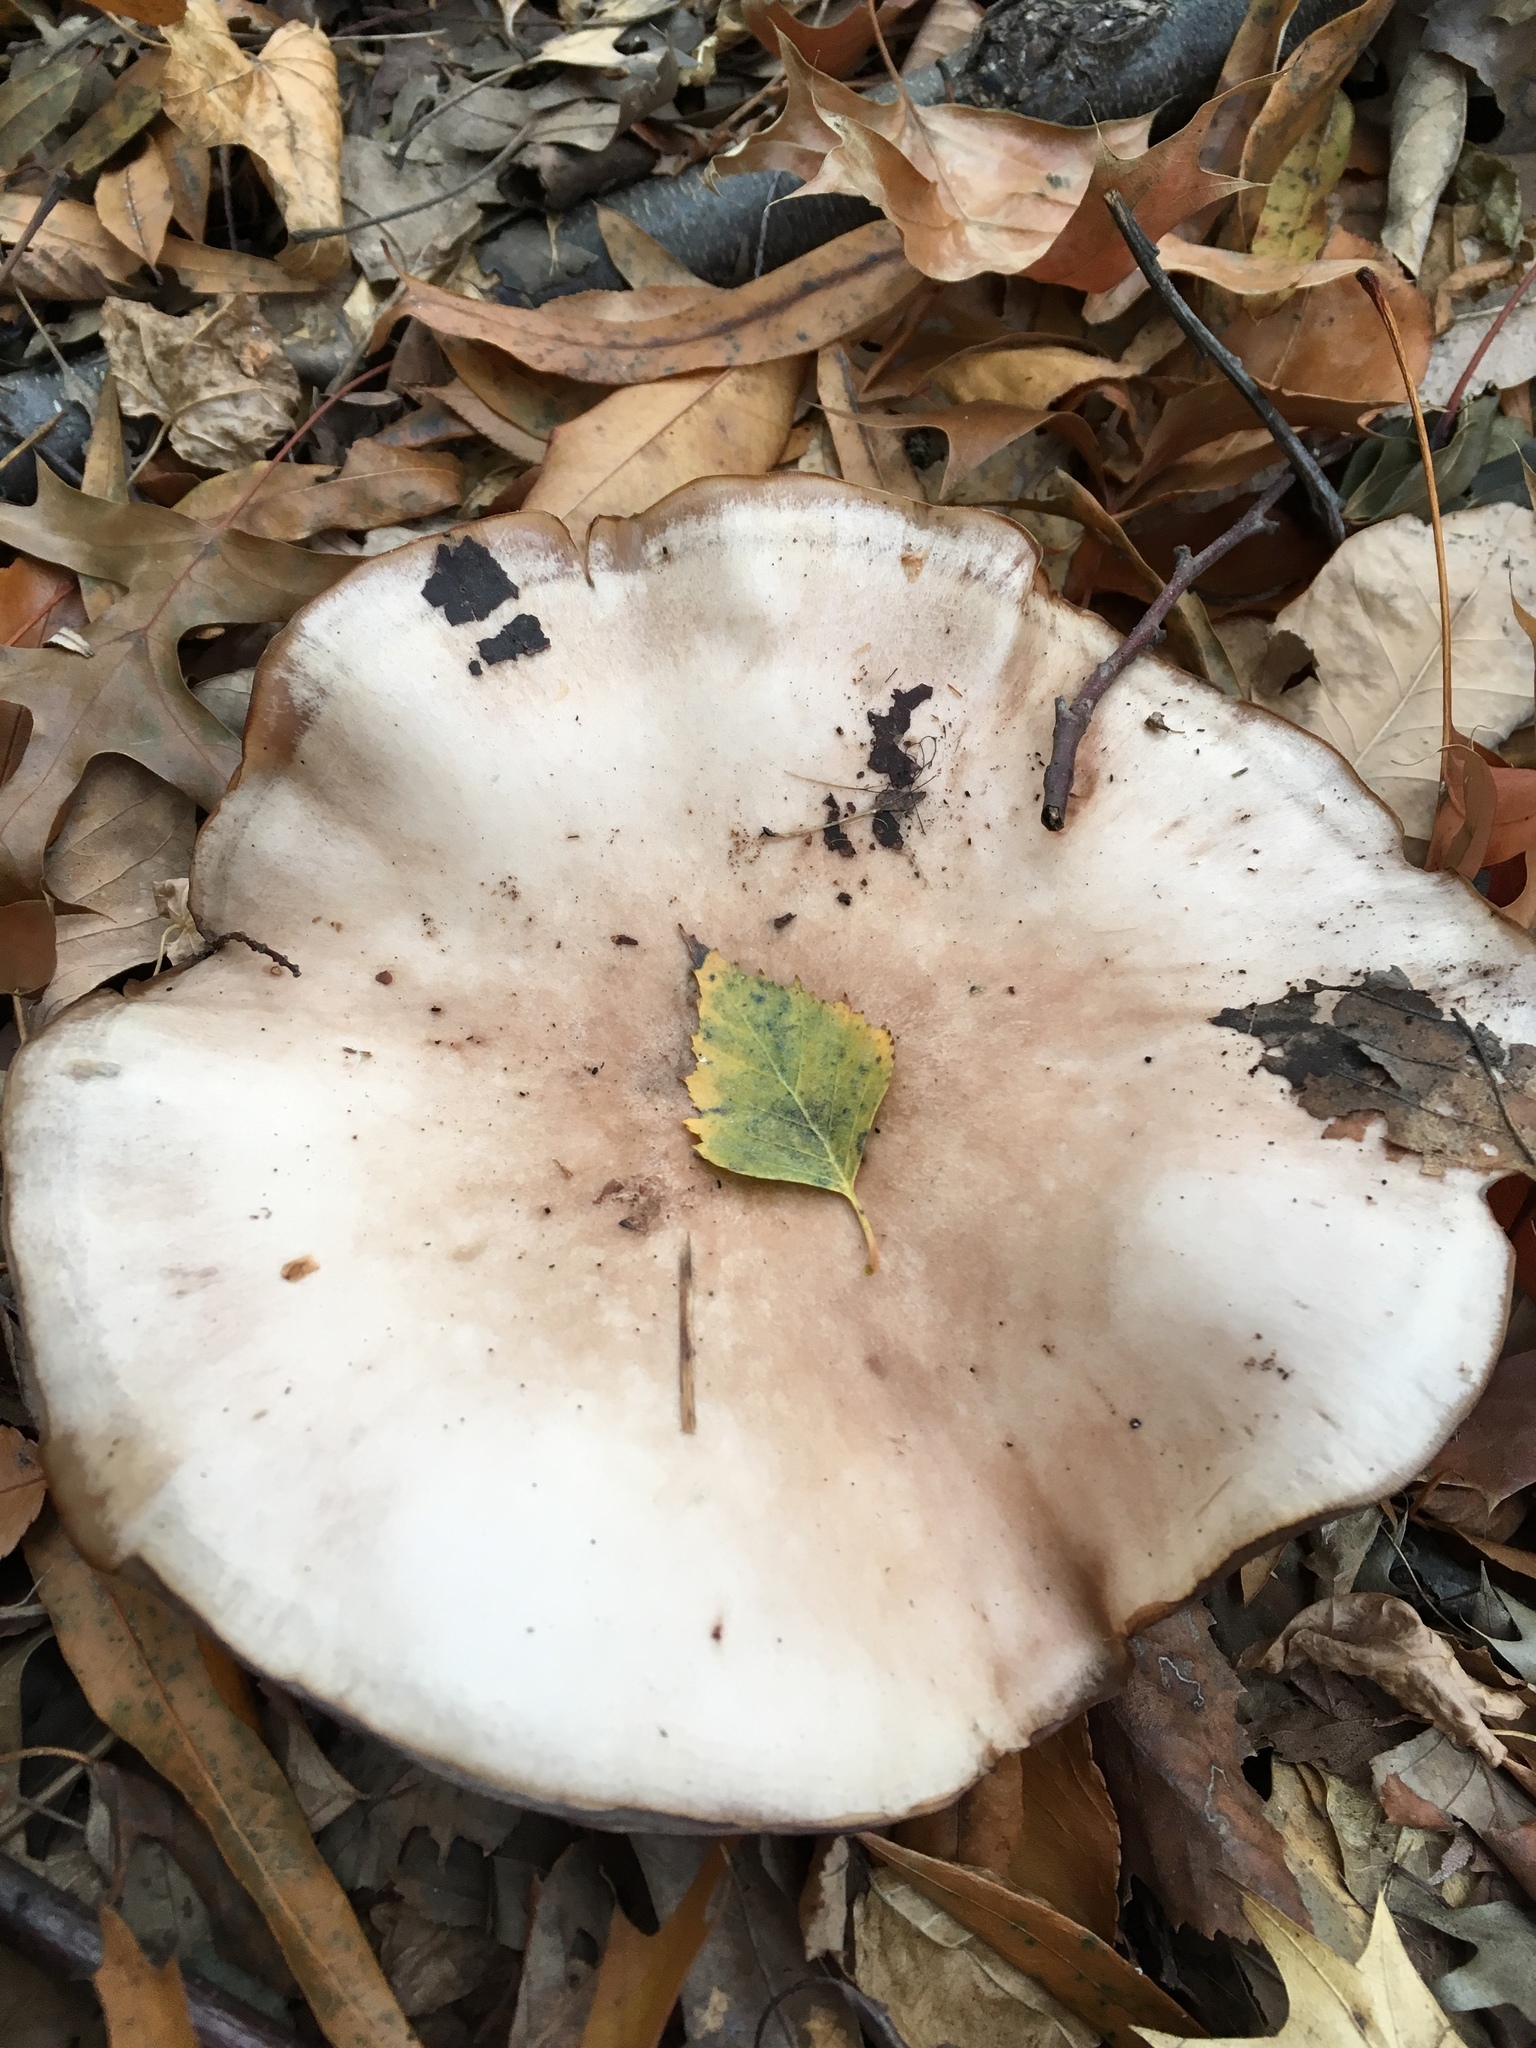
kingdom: Fungi
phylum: Basidiomycota
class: Agaricomycetes
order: Agaricales
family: Tricholomataceae
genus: Collybia
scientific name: Collybia
